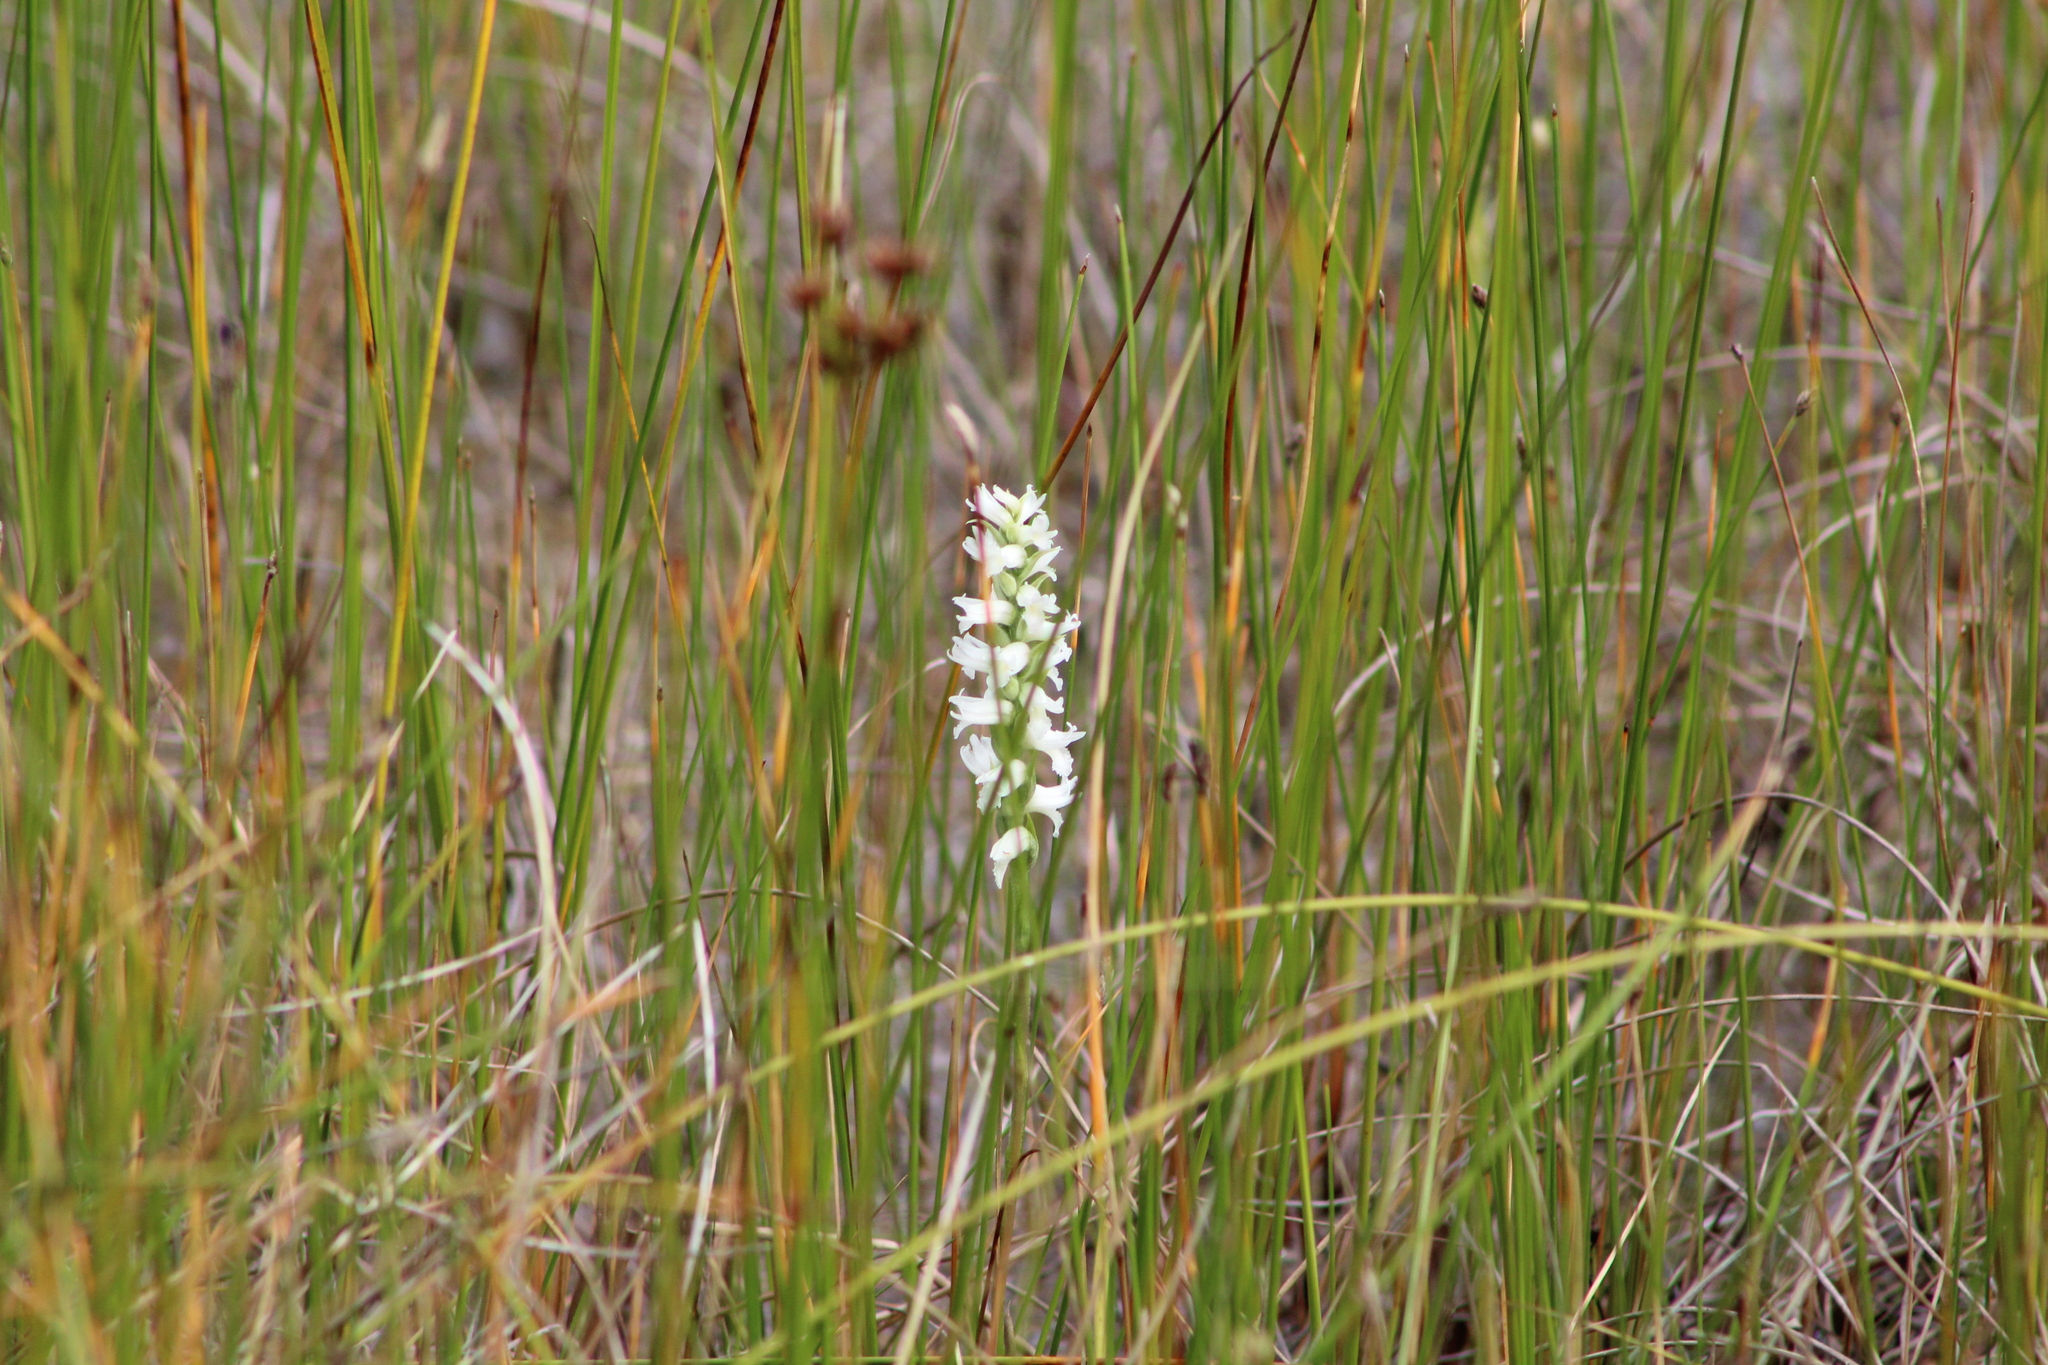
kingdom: Plantae
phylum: Tracheophyta
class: Liliopsida
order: Asparagales
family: Orchidaceae
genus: Spiranthes
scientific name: Spiranthes incurva
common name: Sphinx ladies'-tresses
